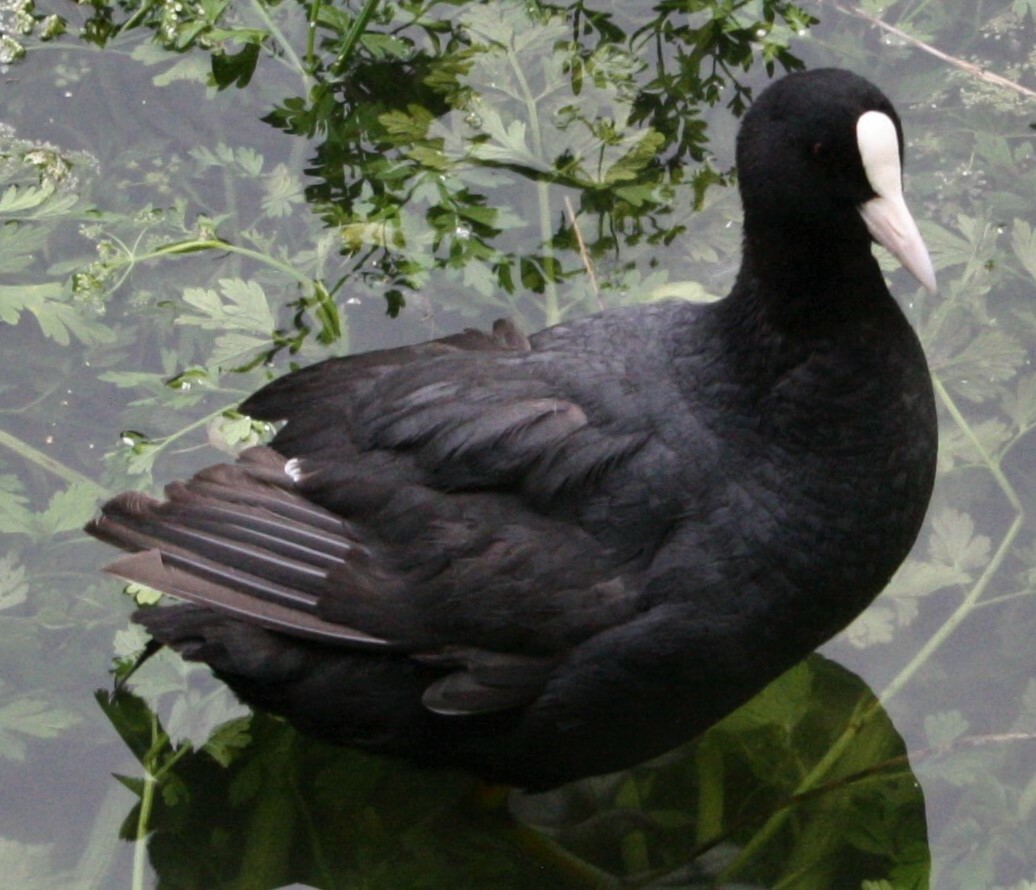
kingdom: Animalia
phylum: Chordata
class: Aves
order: Gruiformes
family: Rallidae
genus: Fulica
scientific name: Fulica atra
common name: Eurasian coot
